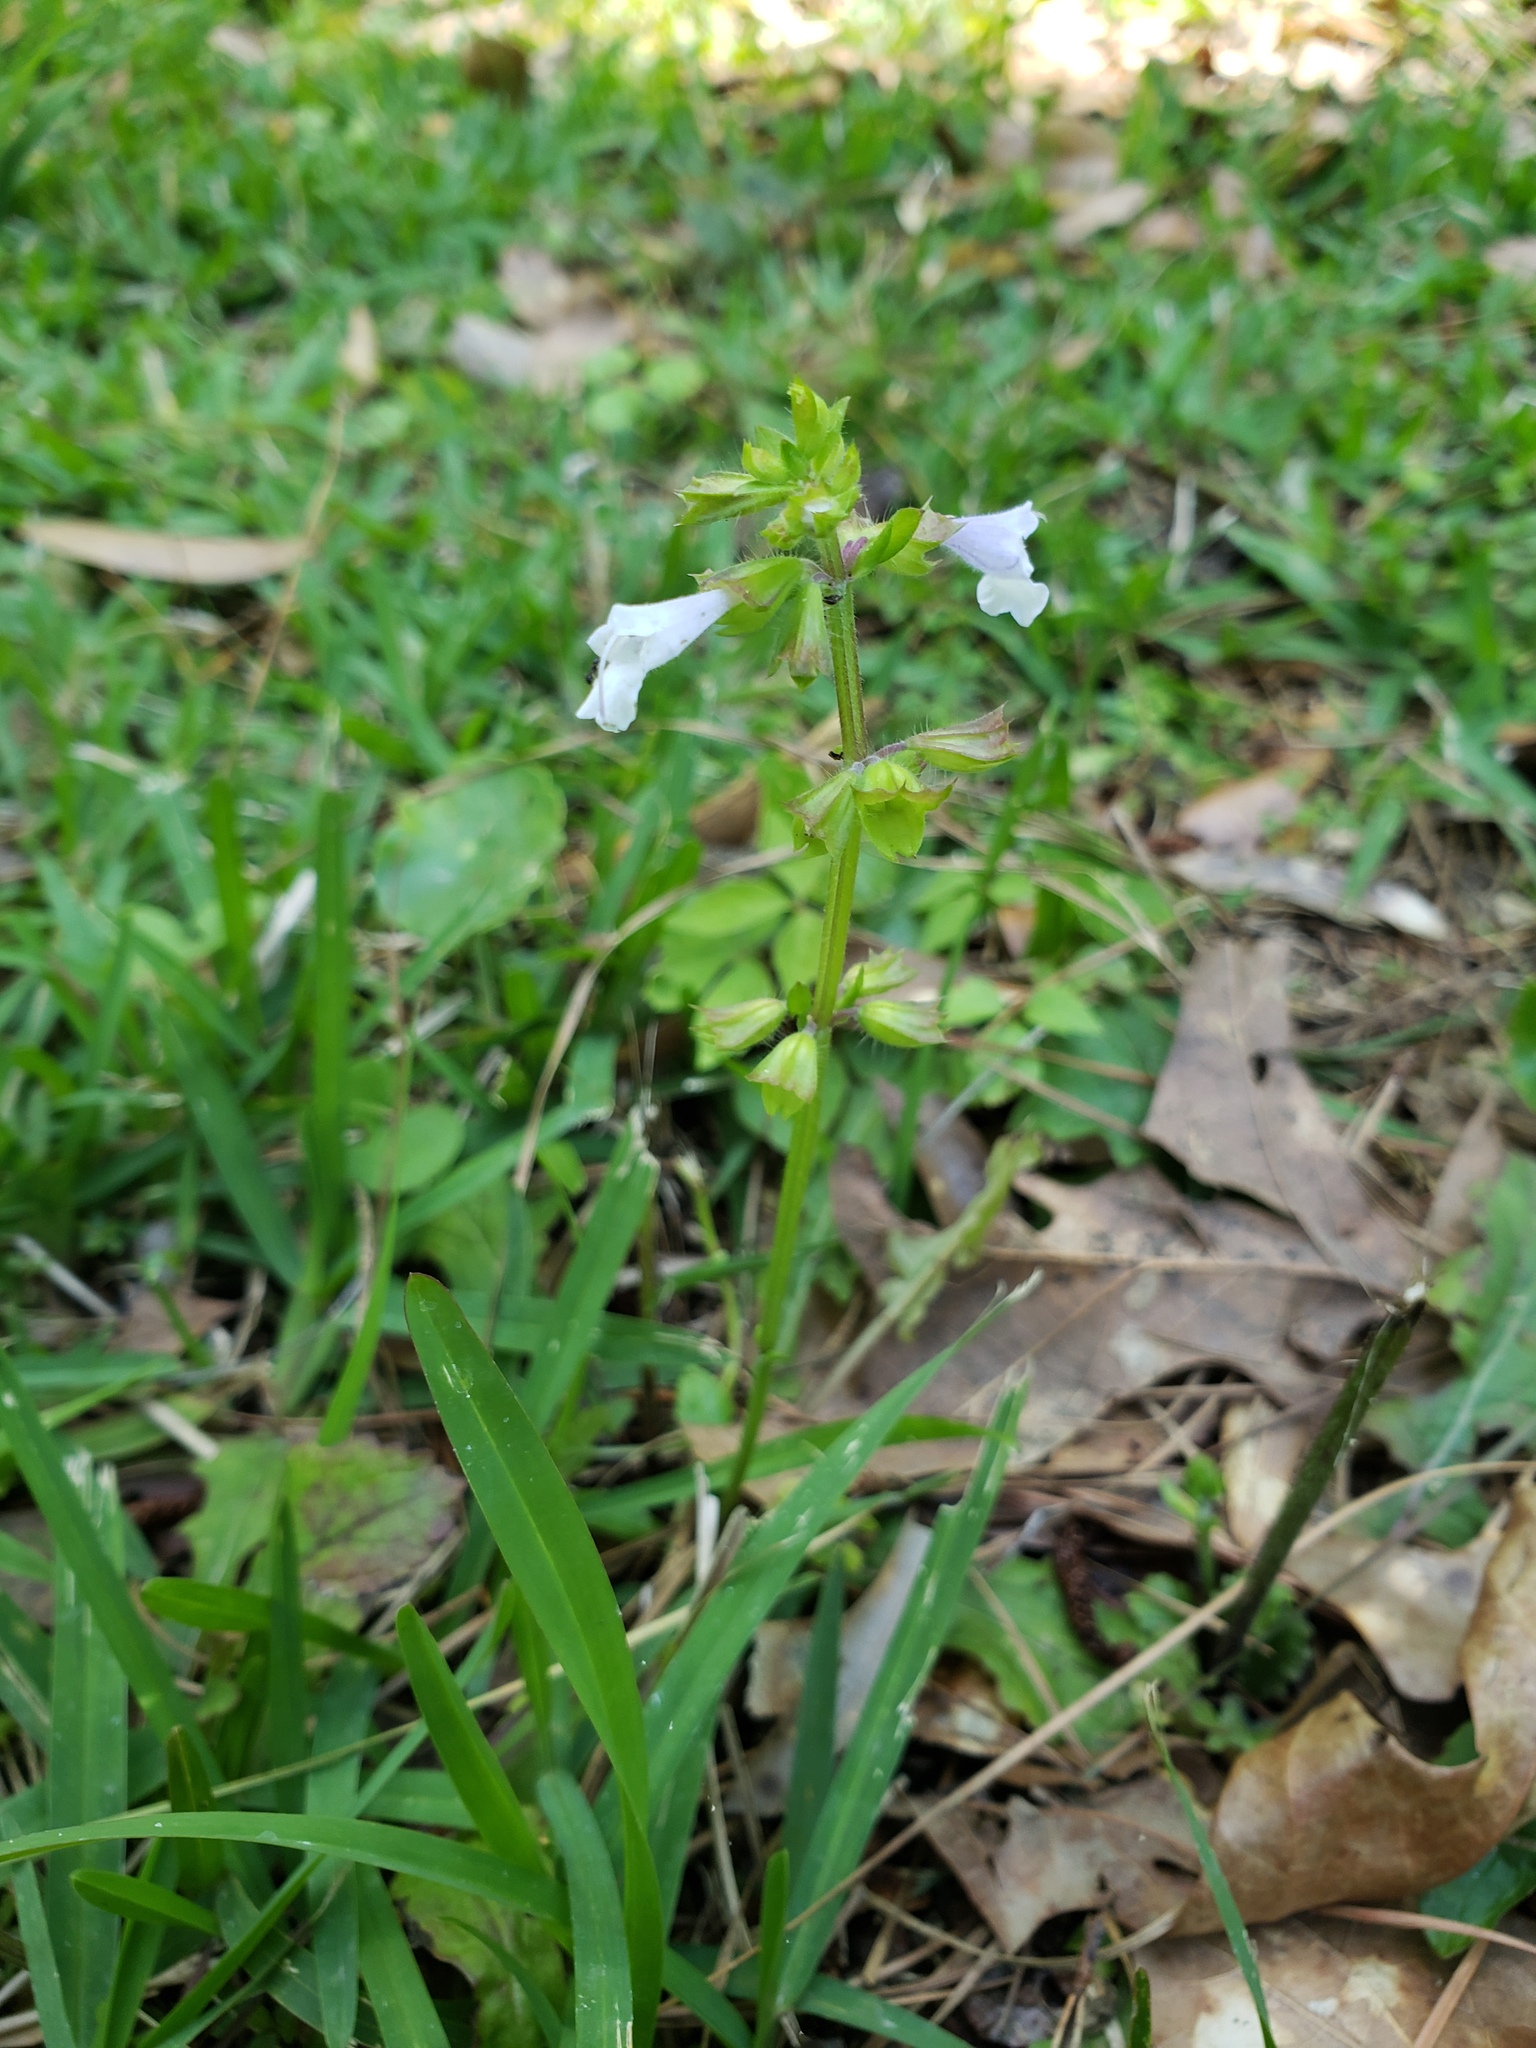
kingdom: Plantae
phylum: Tracheophyta
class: Magnoliopsida
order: Lamiales
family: Lamiaceae
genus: Salvia
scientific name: Salvia lyrata
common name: Cancerweed
